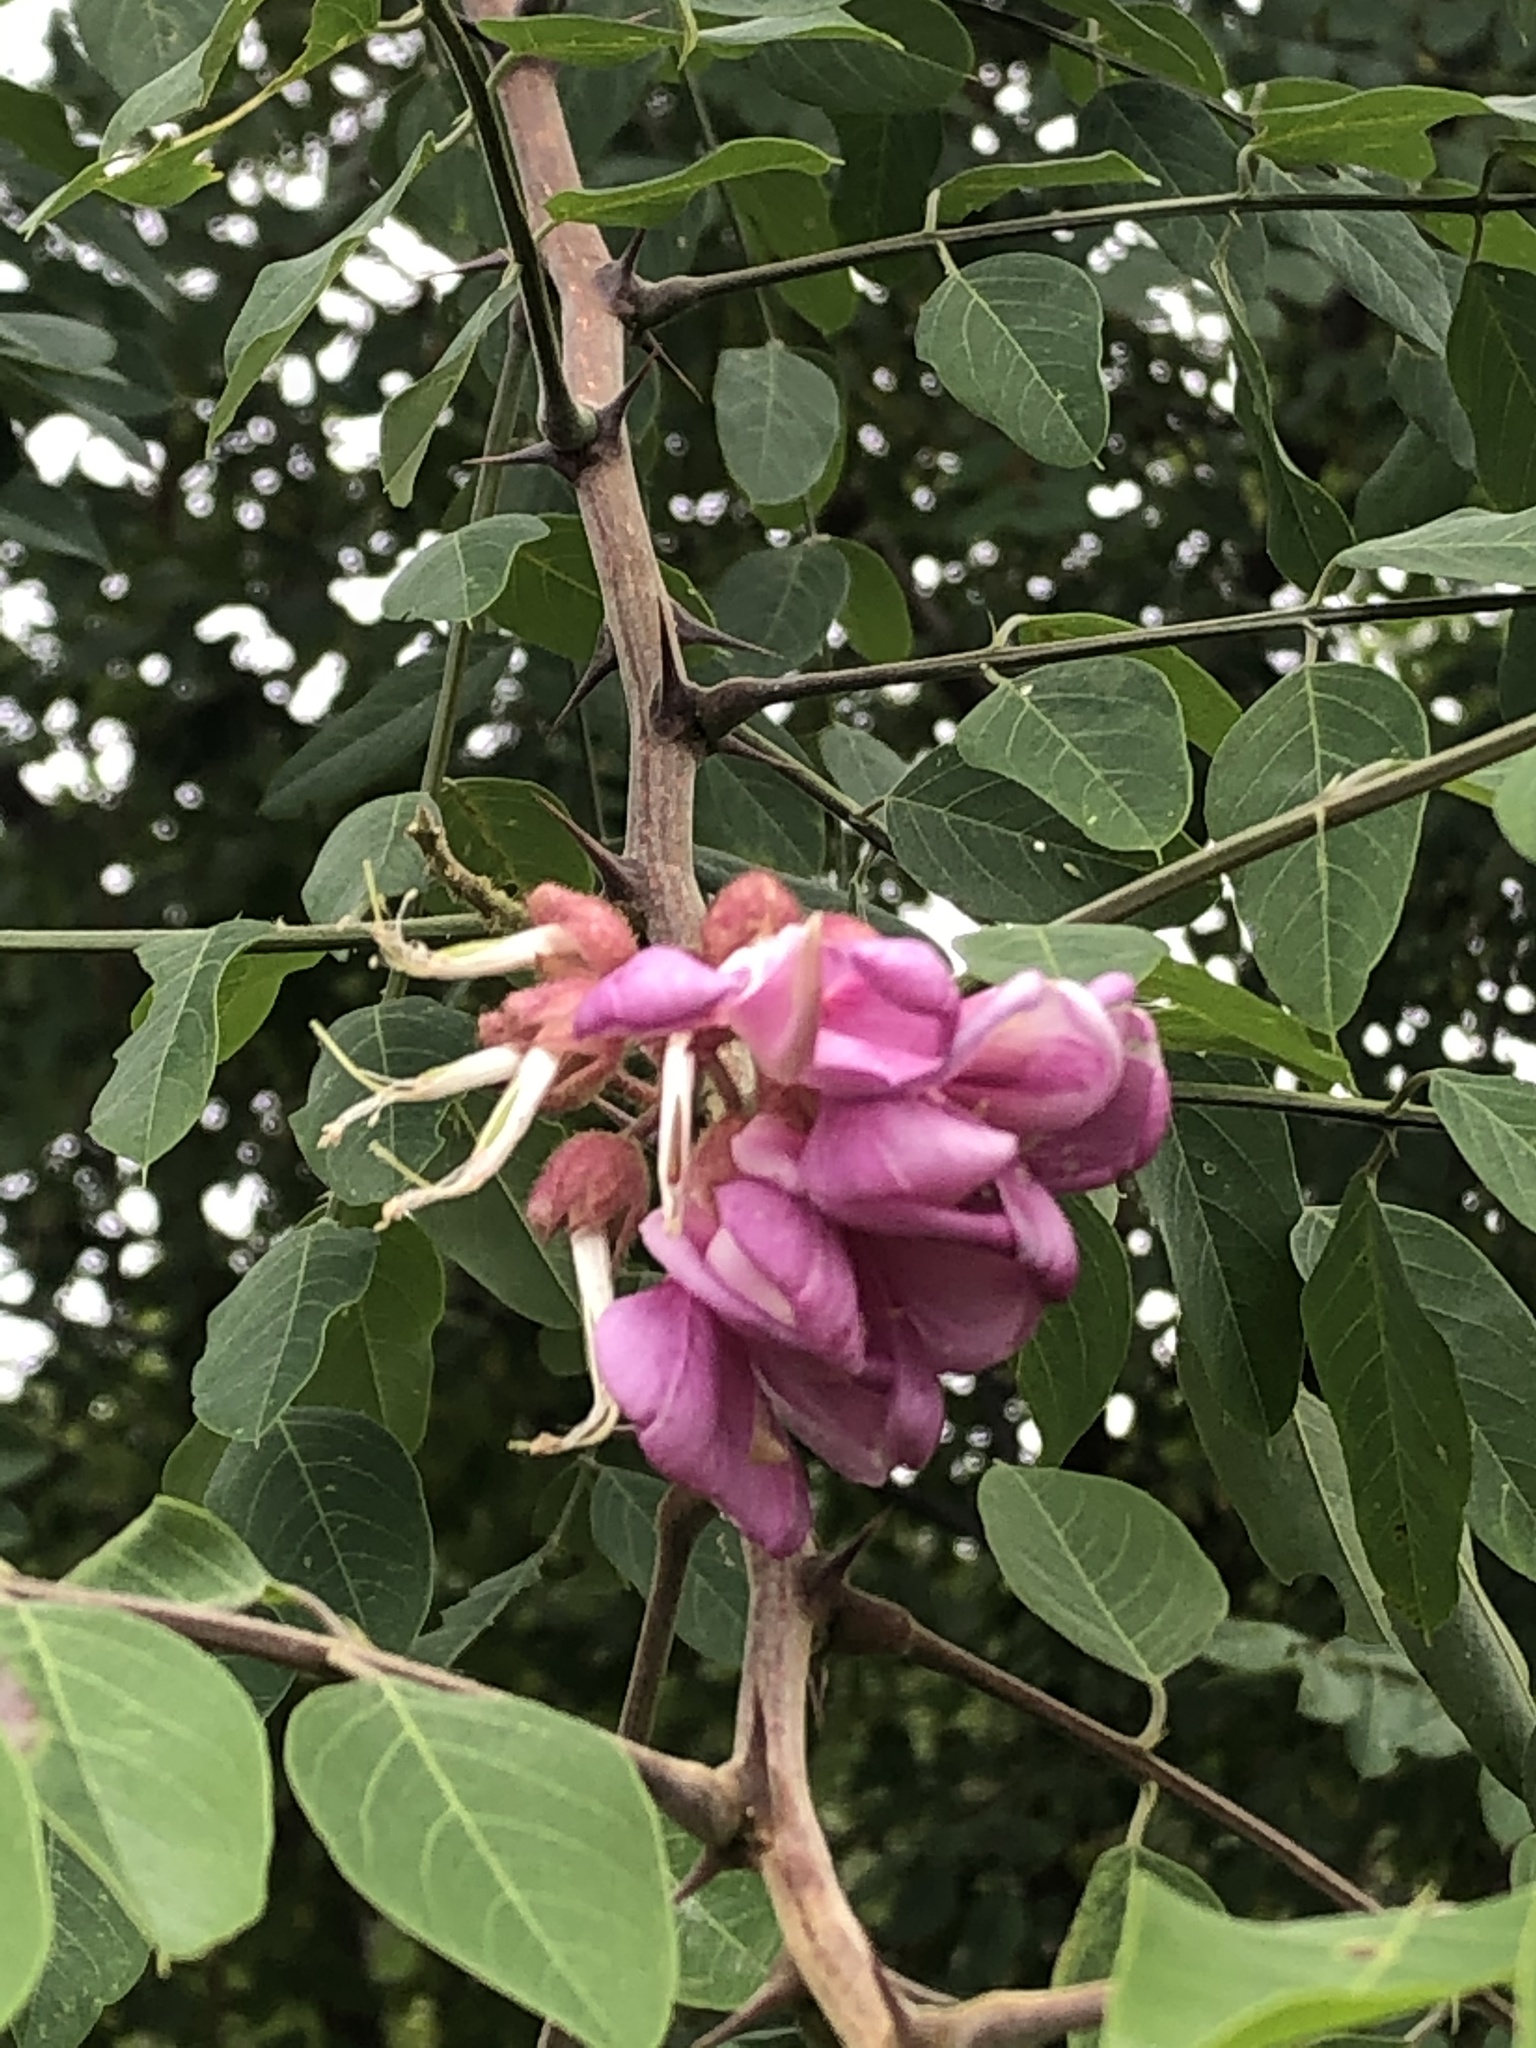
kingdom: Plantae
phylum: Tracheophyta
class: Magnoliopsida
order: Fabales
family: Fabaceae
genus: Robinia
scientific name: Robinia neomexicana
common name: New mexico locust
